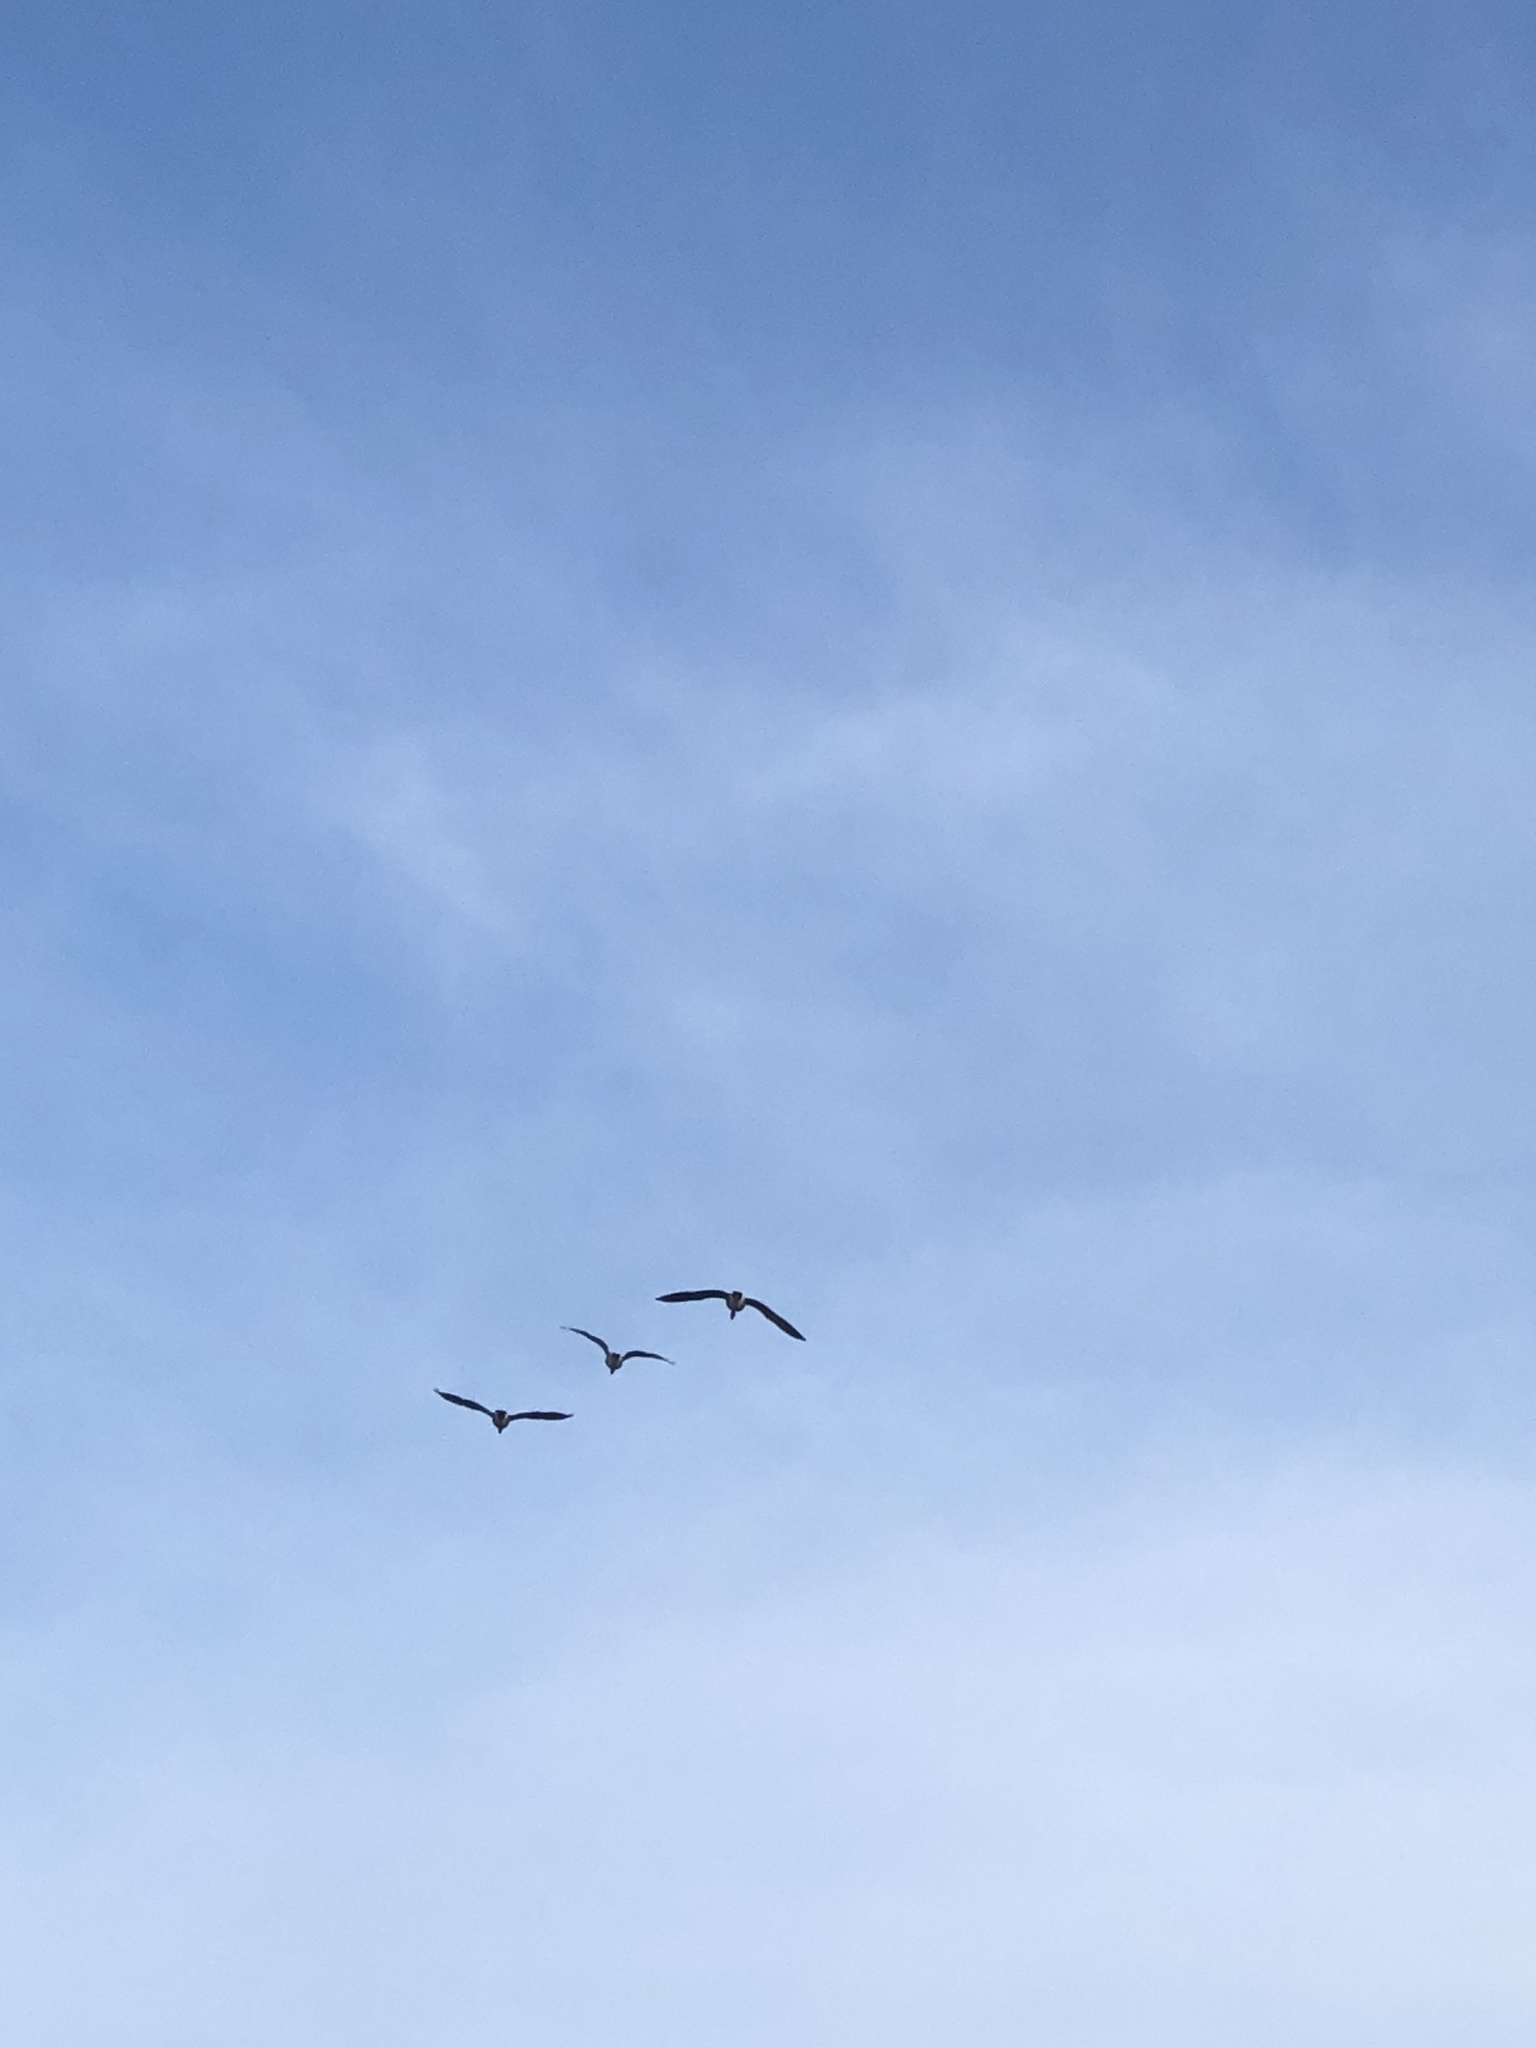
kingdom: Animalia
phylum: Chordata
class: Aves
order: Anseriformes
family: Anatidae
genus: Branta
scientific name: Branta canadensis
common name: Canada goose
